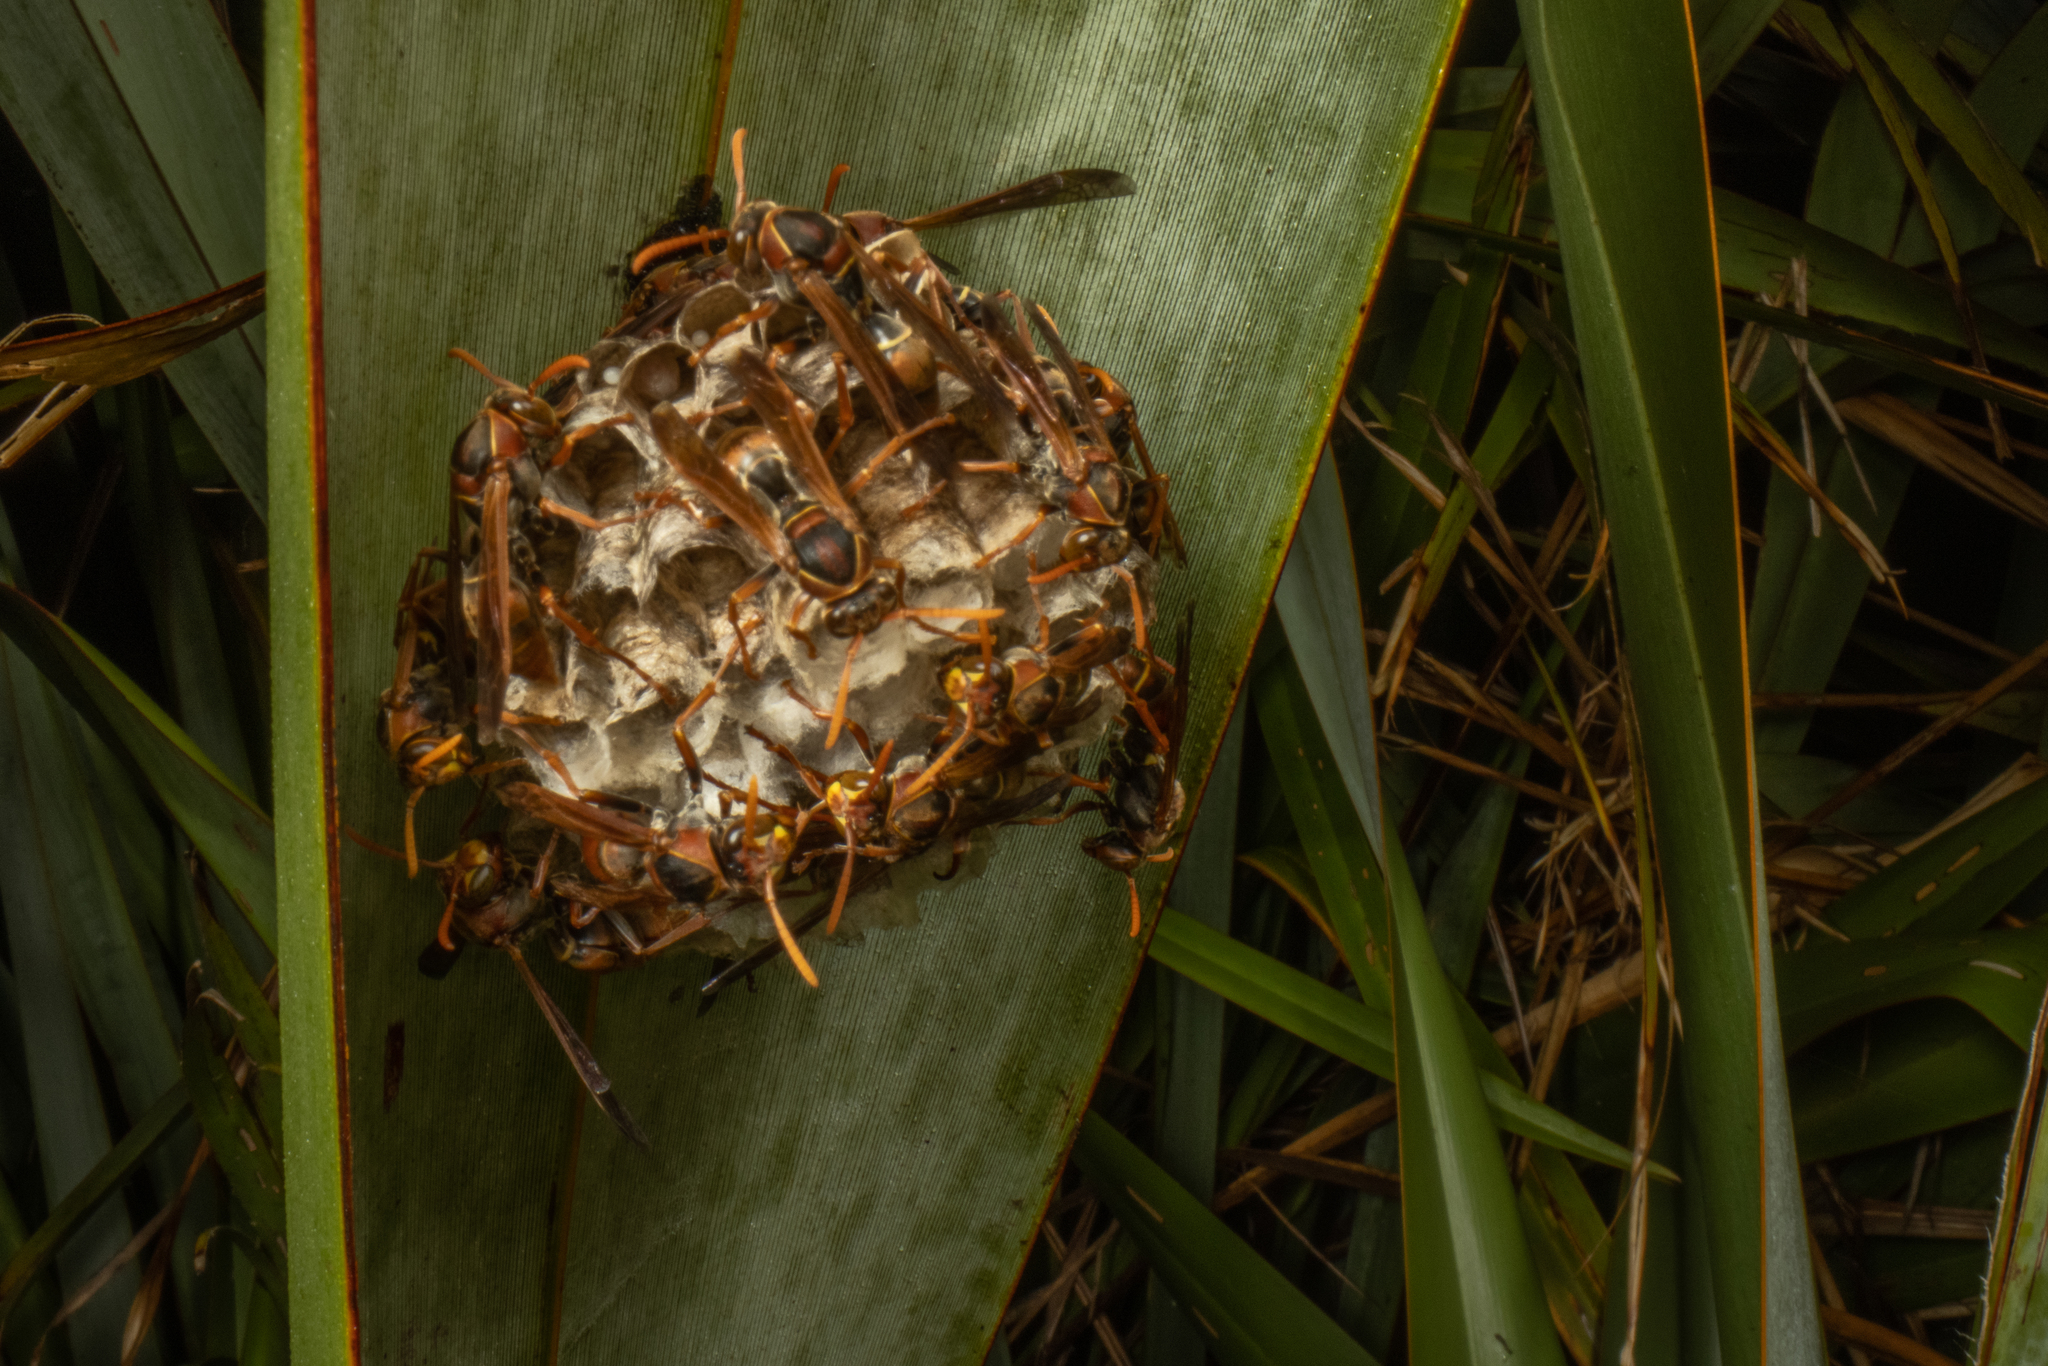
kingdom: Animalia
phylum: Arthropoda
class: Insecta
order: Hymenoptera
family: Eumenidae
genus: Polistes
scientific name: Polistes humilis
